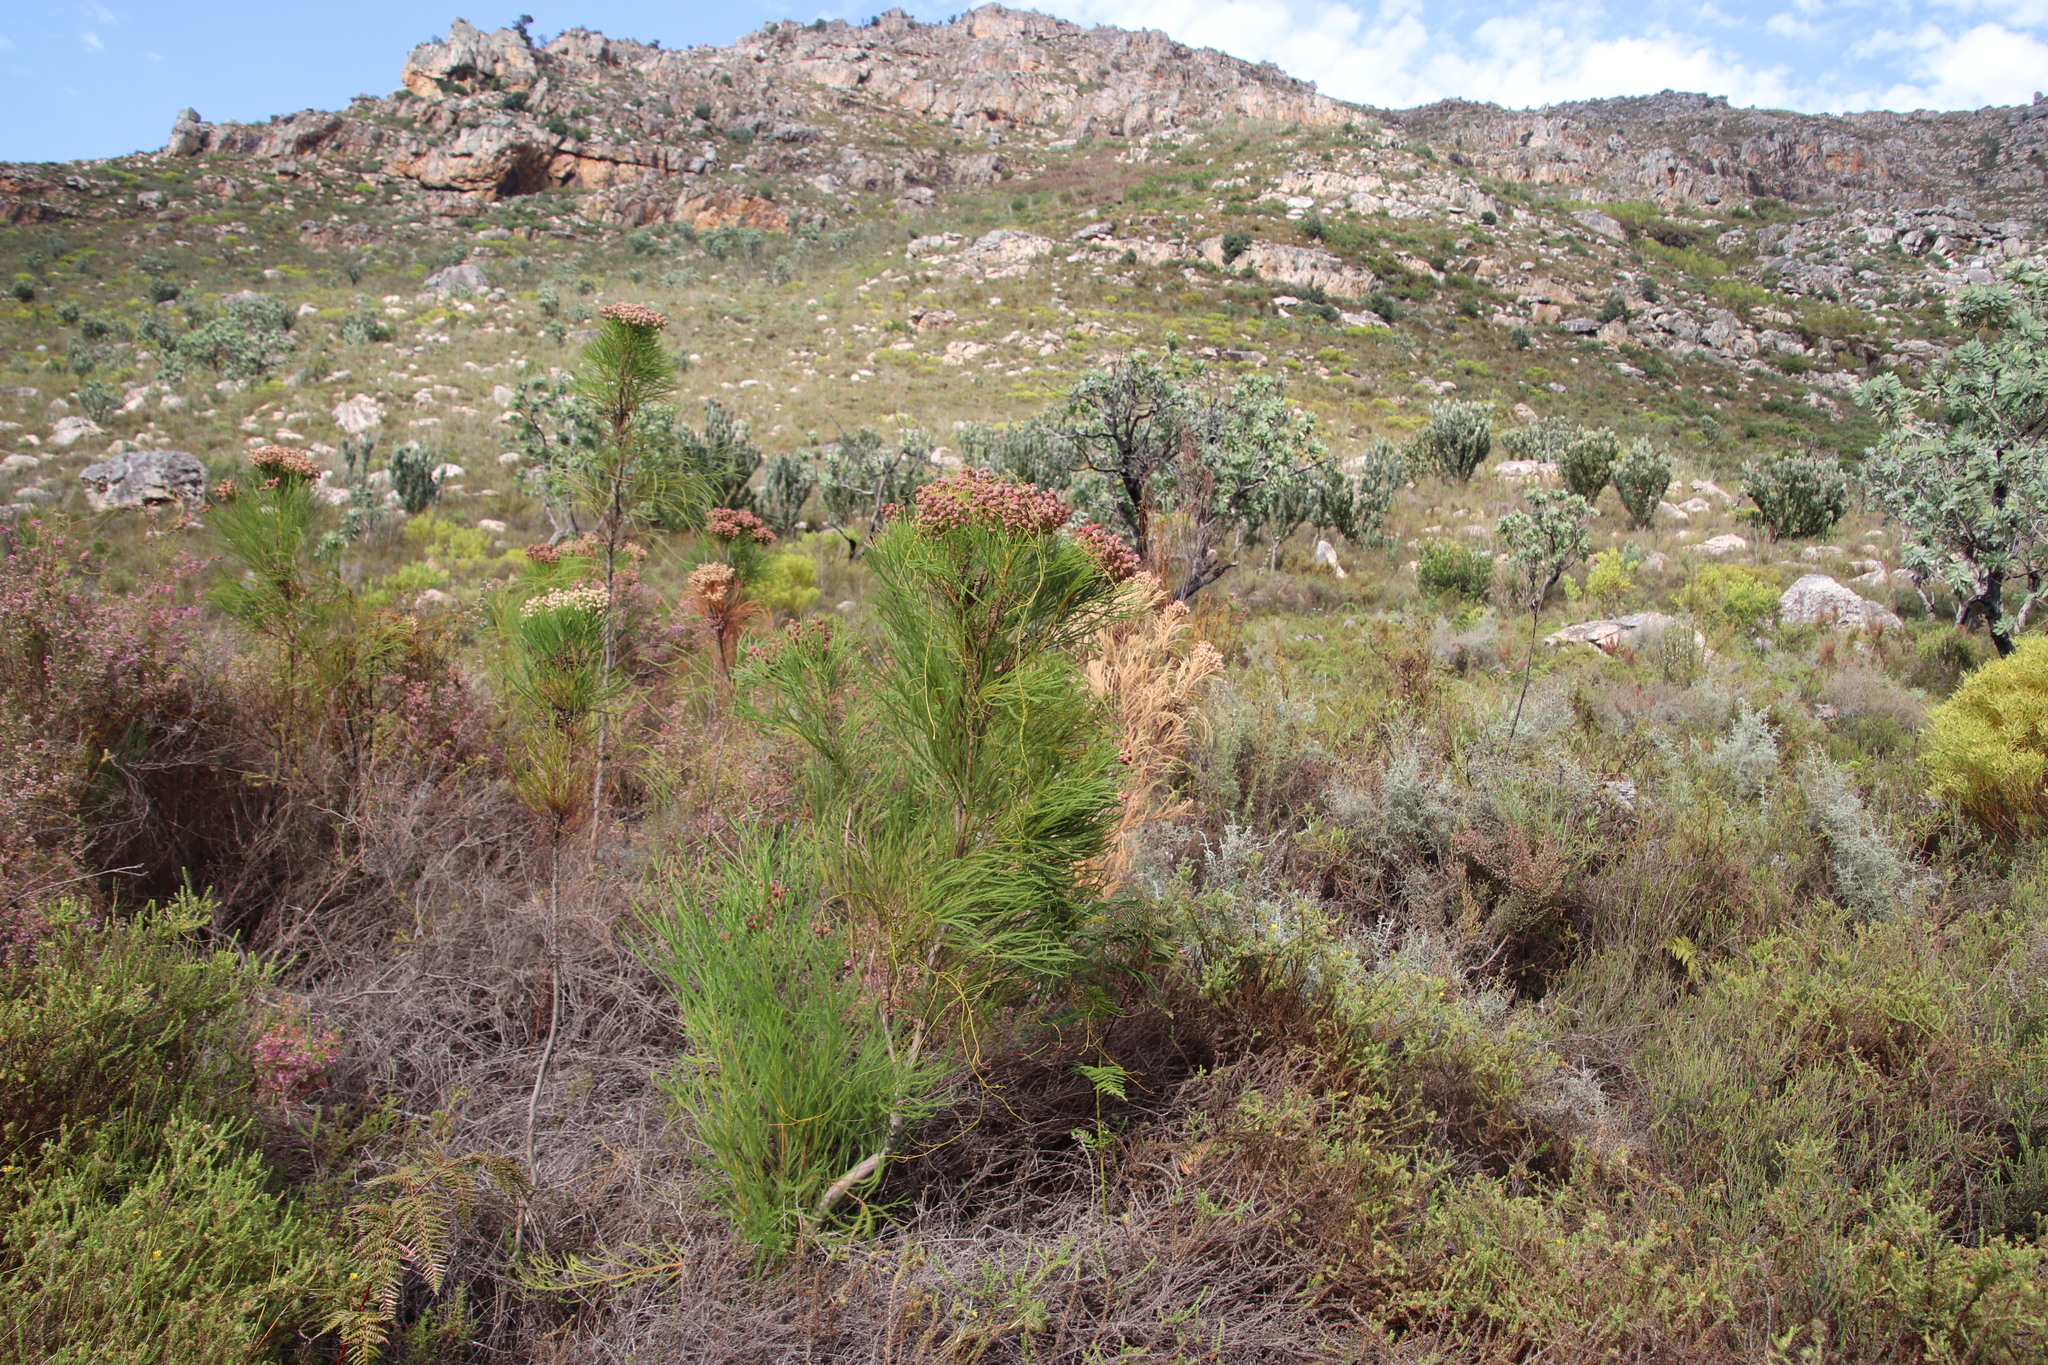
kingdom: Plantae
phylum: Tracheophyta
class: Magnoliopsida
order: Bruniales
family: Bruniaceae
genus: Berzelia
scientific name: Berzelia lanuginosa
